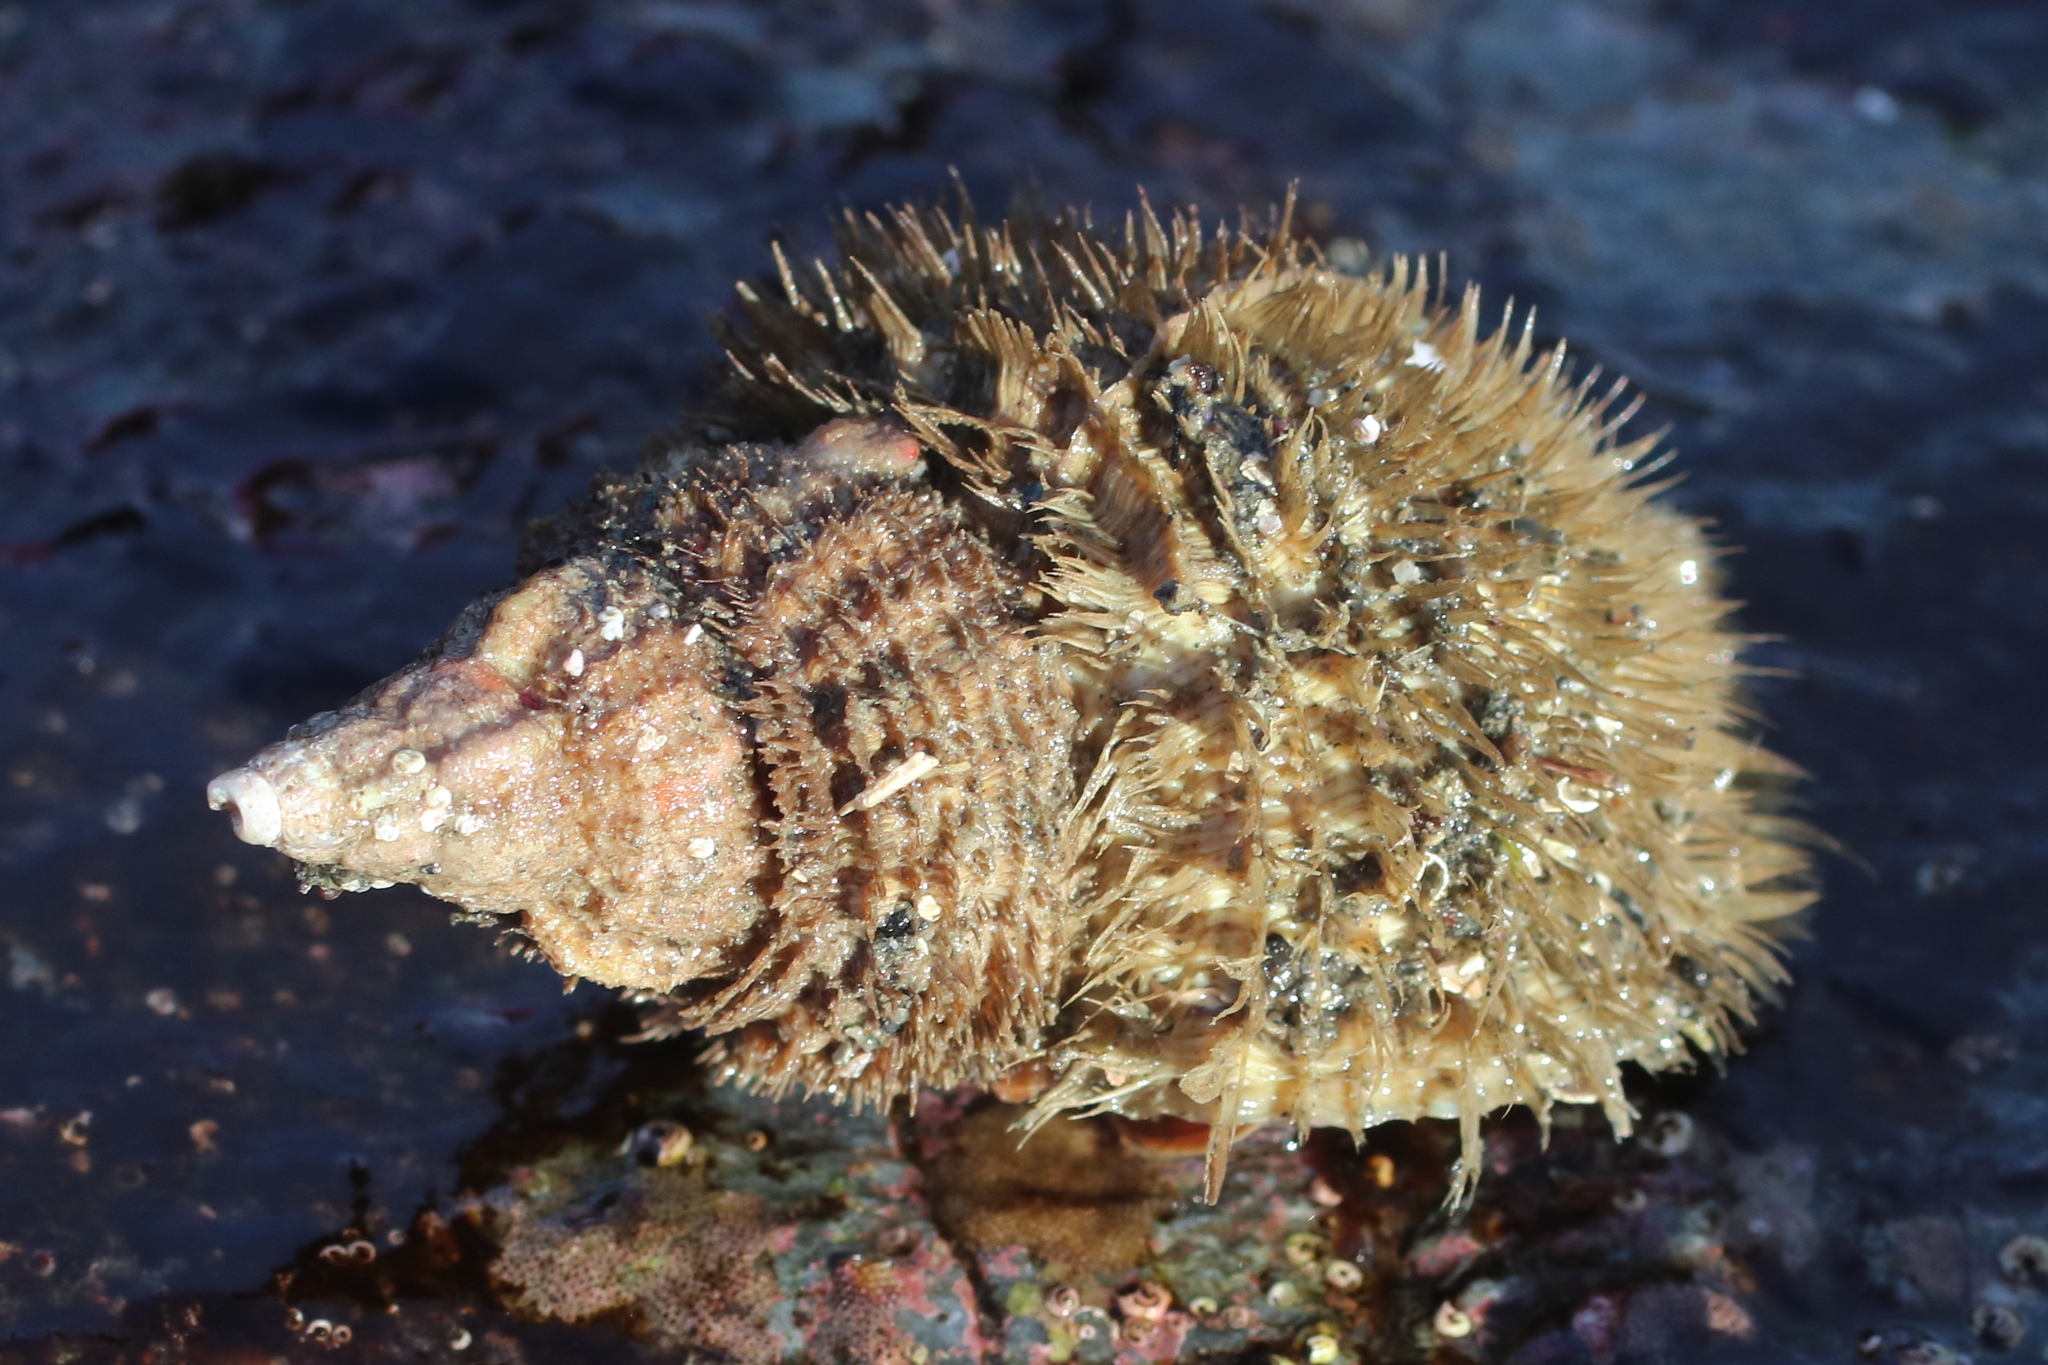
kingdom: Animalia
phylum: Mollusca
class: Gastropoda
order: Littorinimorpha
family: Cymatiidae
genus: Fusitriton
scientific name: Fusitriton oregonensis
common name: Oregon hairy triton
